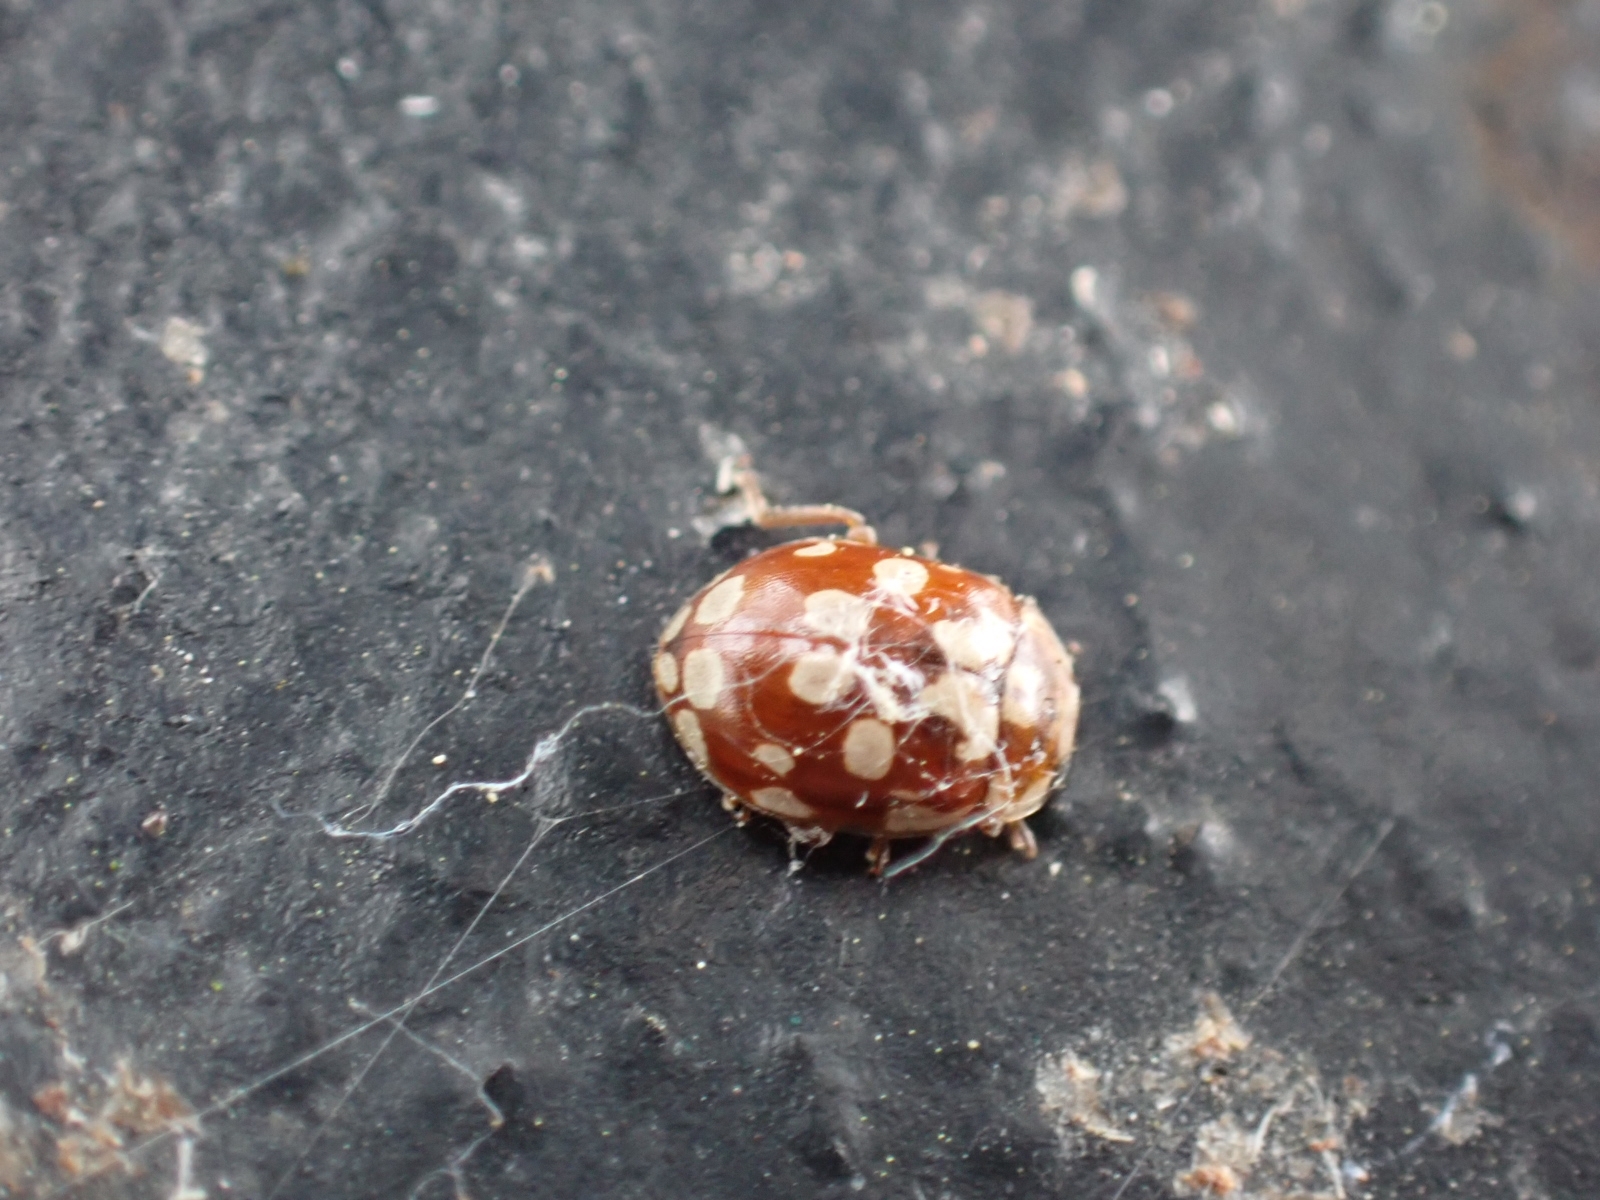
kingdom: Animalia
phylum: Arthropoda
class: Insecta
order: Coleoptera
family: Coccinellidae
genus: Myrrha
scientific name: Myrrha octodecimguttata
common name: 18-spot ladybird
